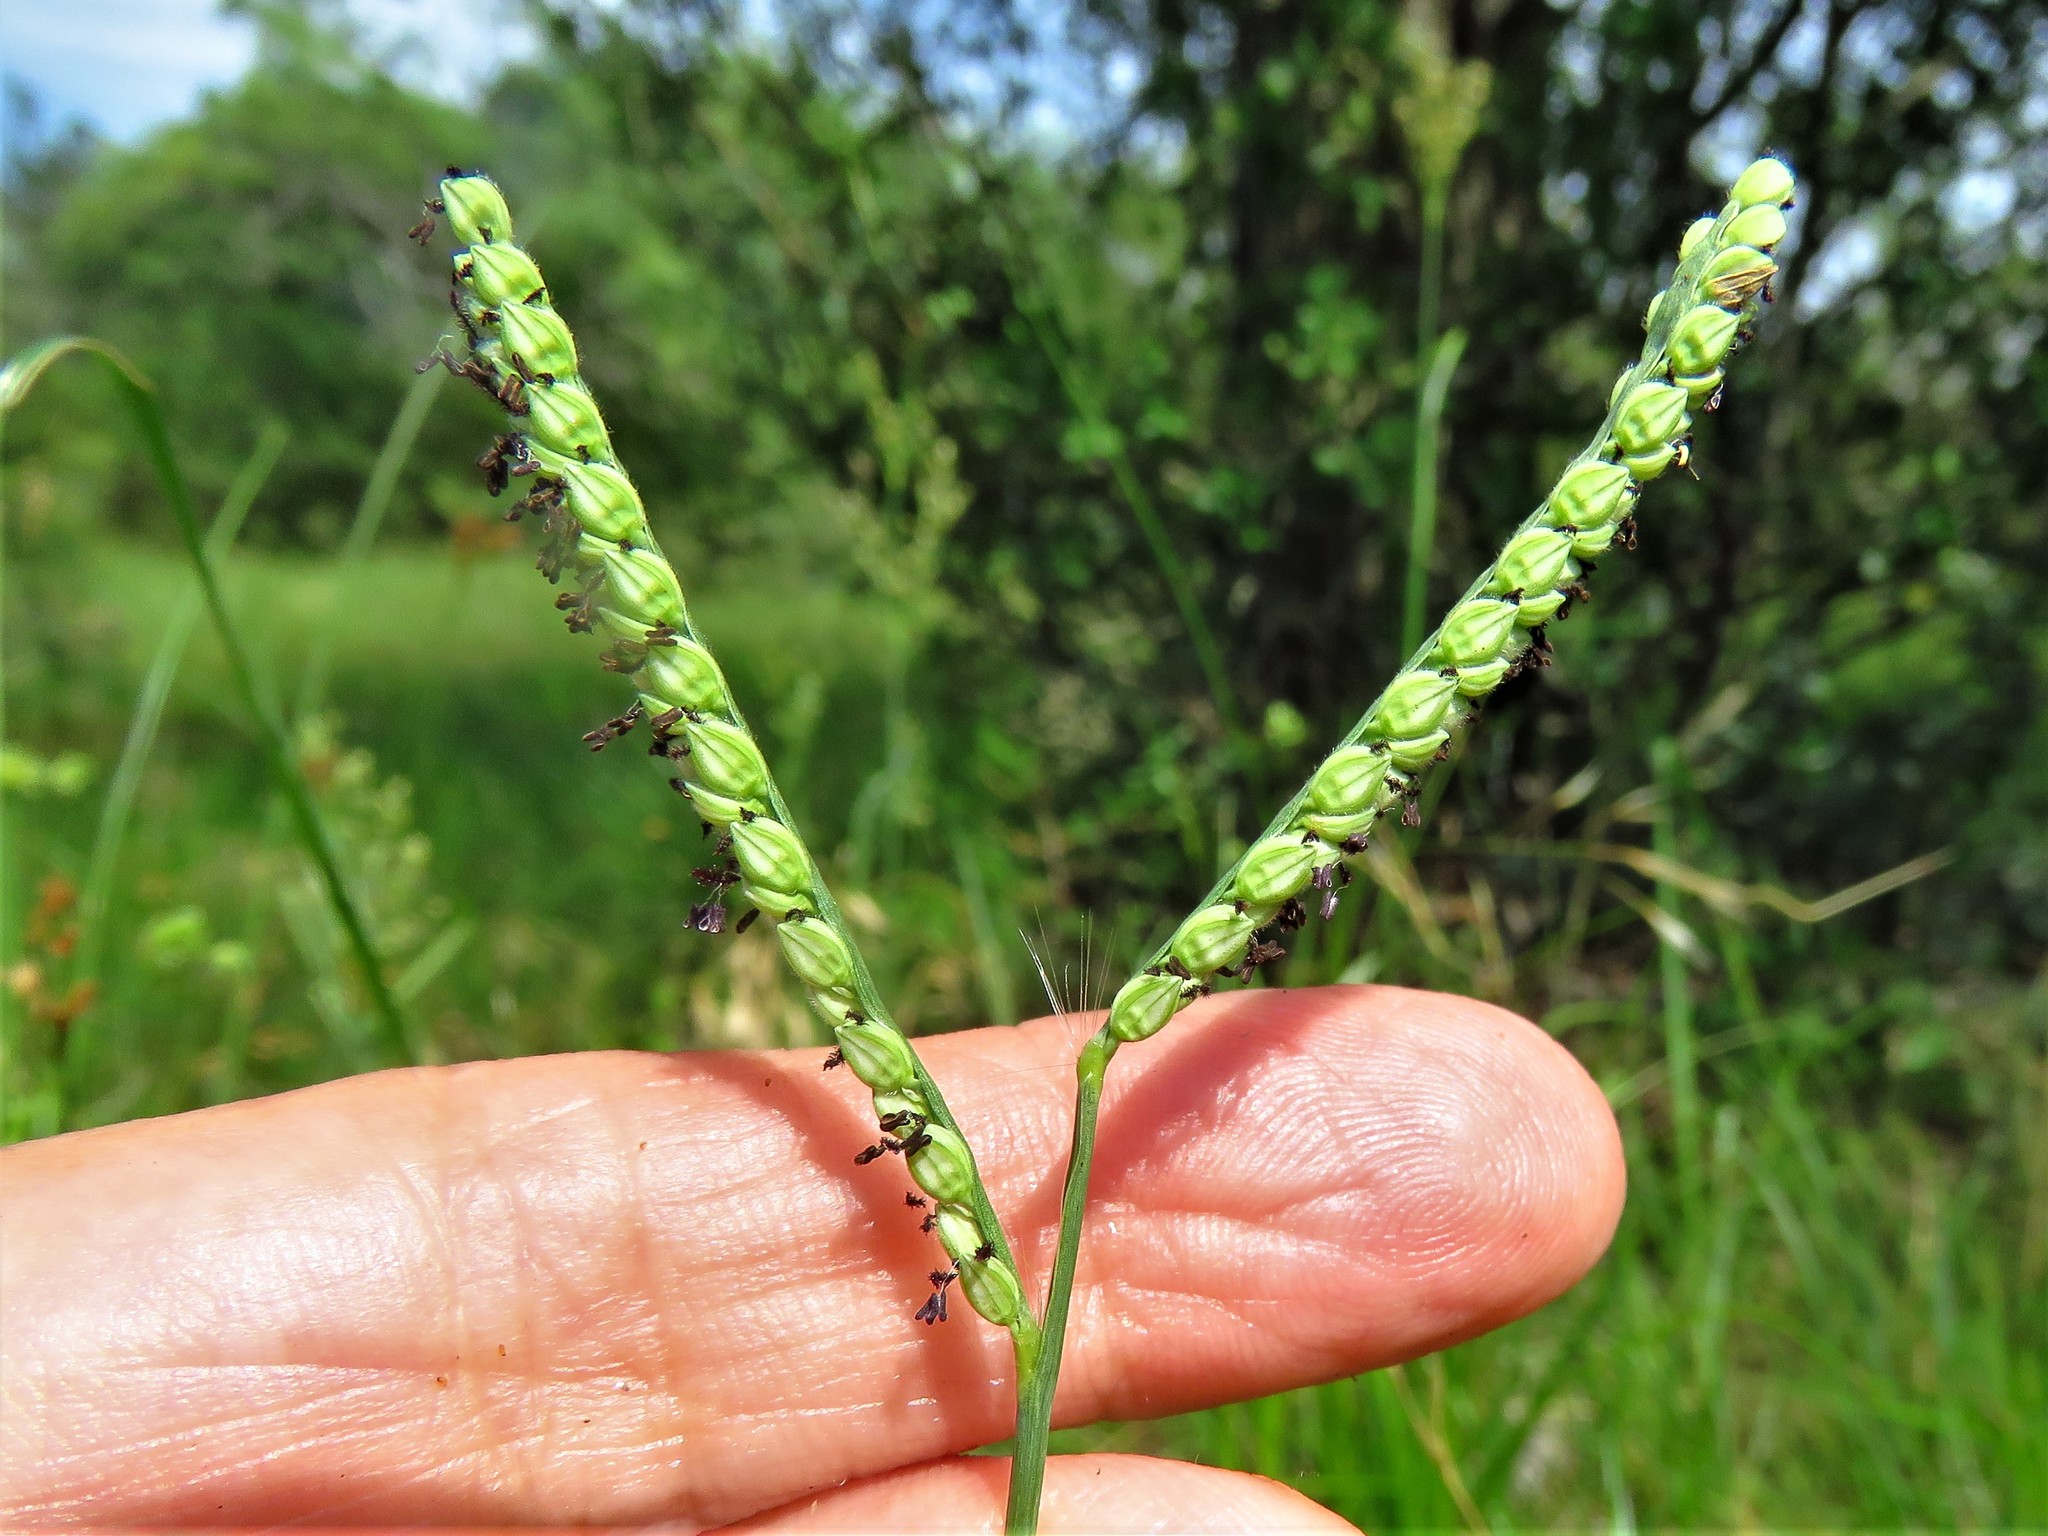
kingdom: Plantae
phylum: Tracheophyta
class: Liliopsida
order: Poales
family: Poaceae
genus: Paspalum
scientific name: Paspalum pubiflorum
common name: Hairy-seed paspalum
